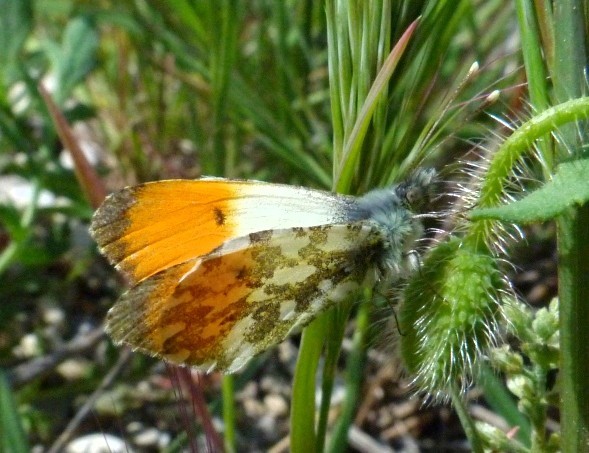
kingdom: Animalia
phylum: Arthropoda
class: Insecta
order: Lepidoptera
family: Pieridae
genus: Anthocharis
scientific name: Anthocharis cardamines
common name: Orange-tip
